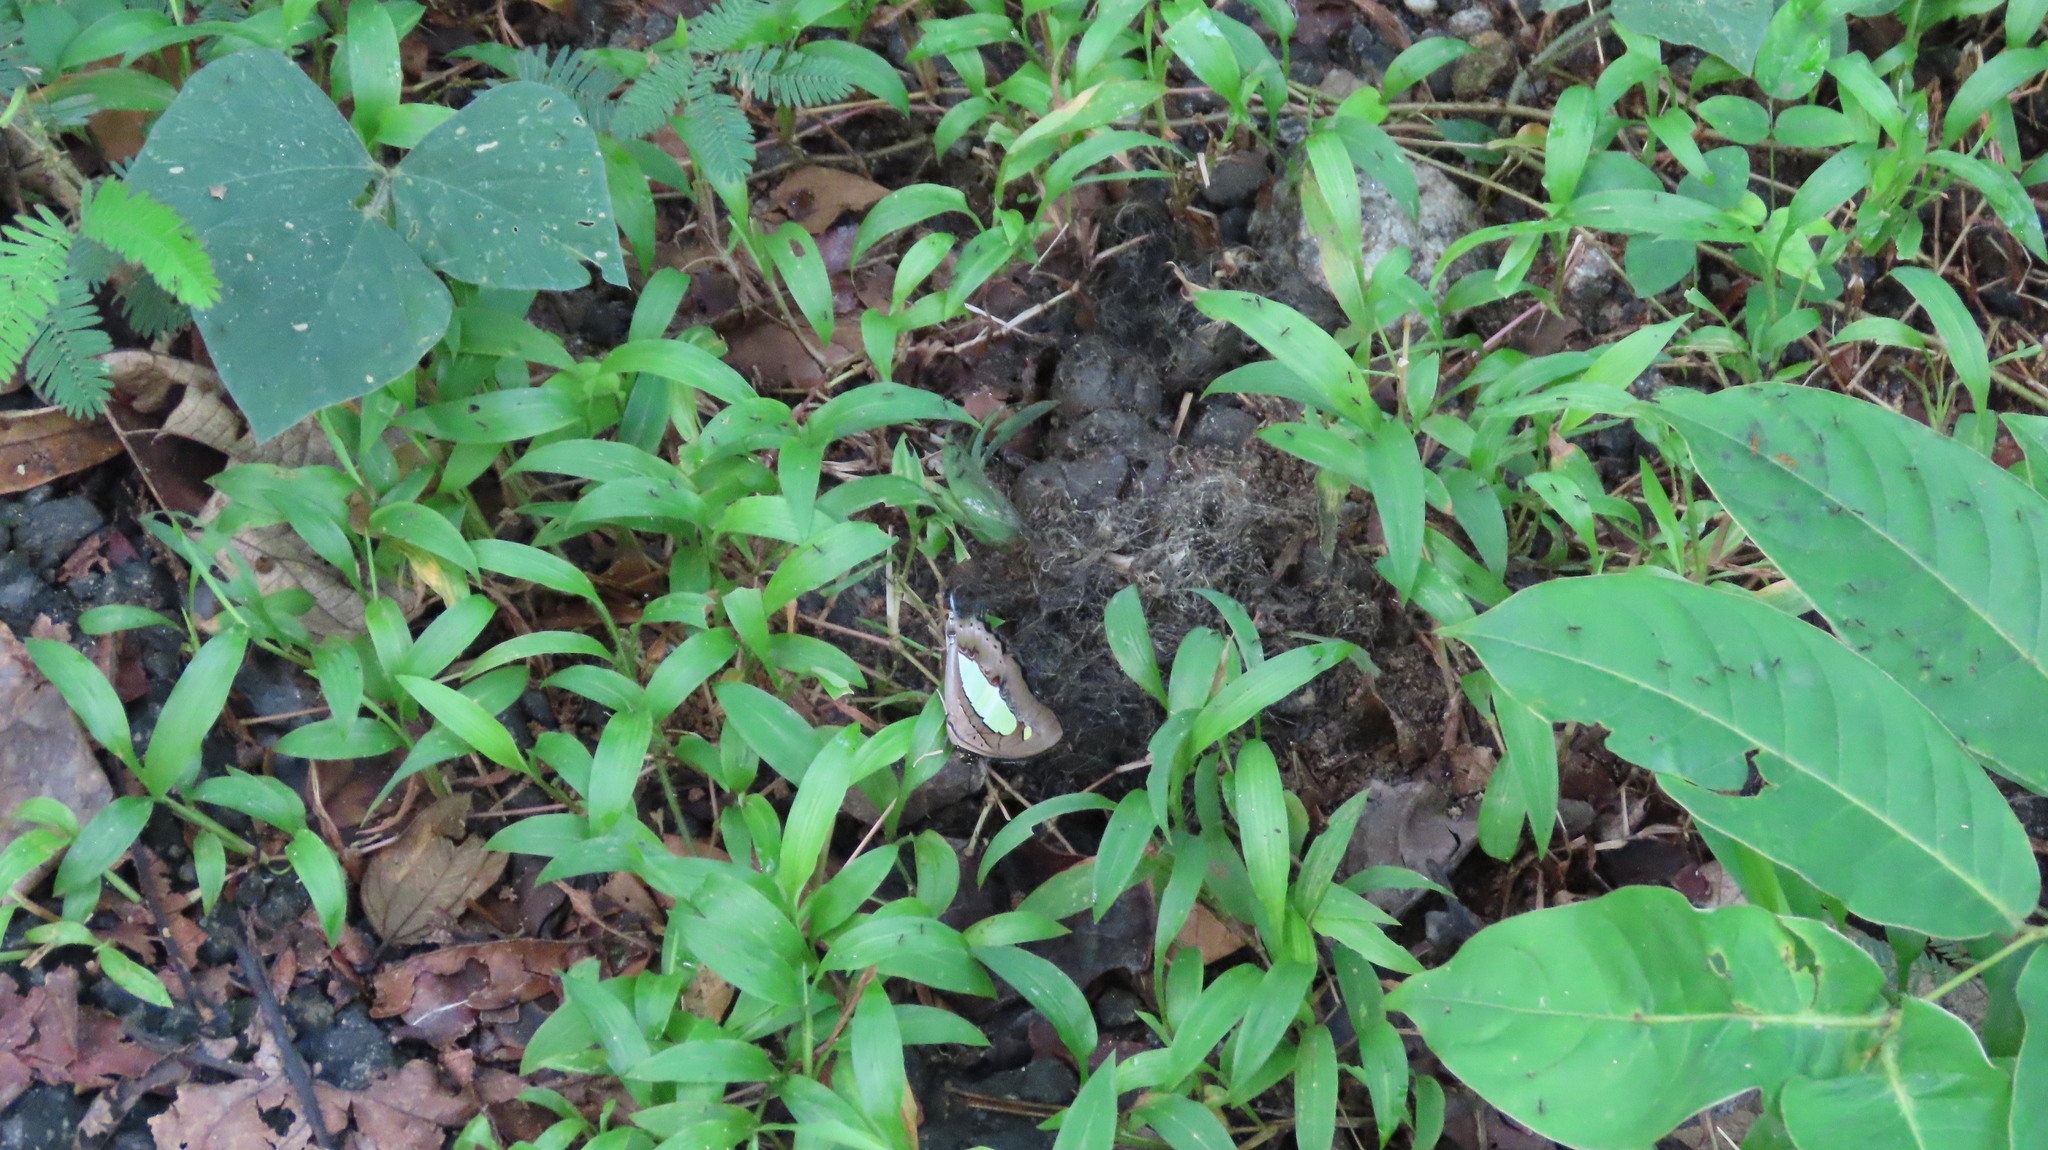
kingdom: Animalia
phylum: Arthropoda
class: Insecta
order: Lepidoptera
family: Nymphalidae
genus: Polyura
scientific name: Polyura
